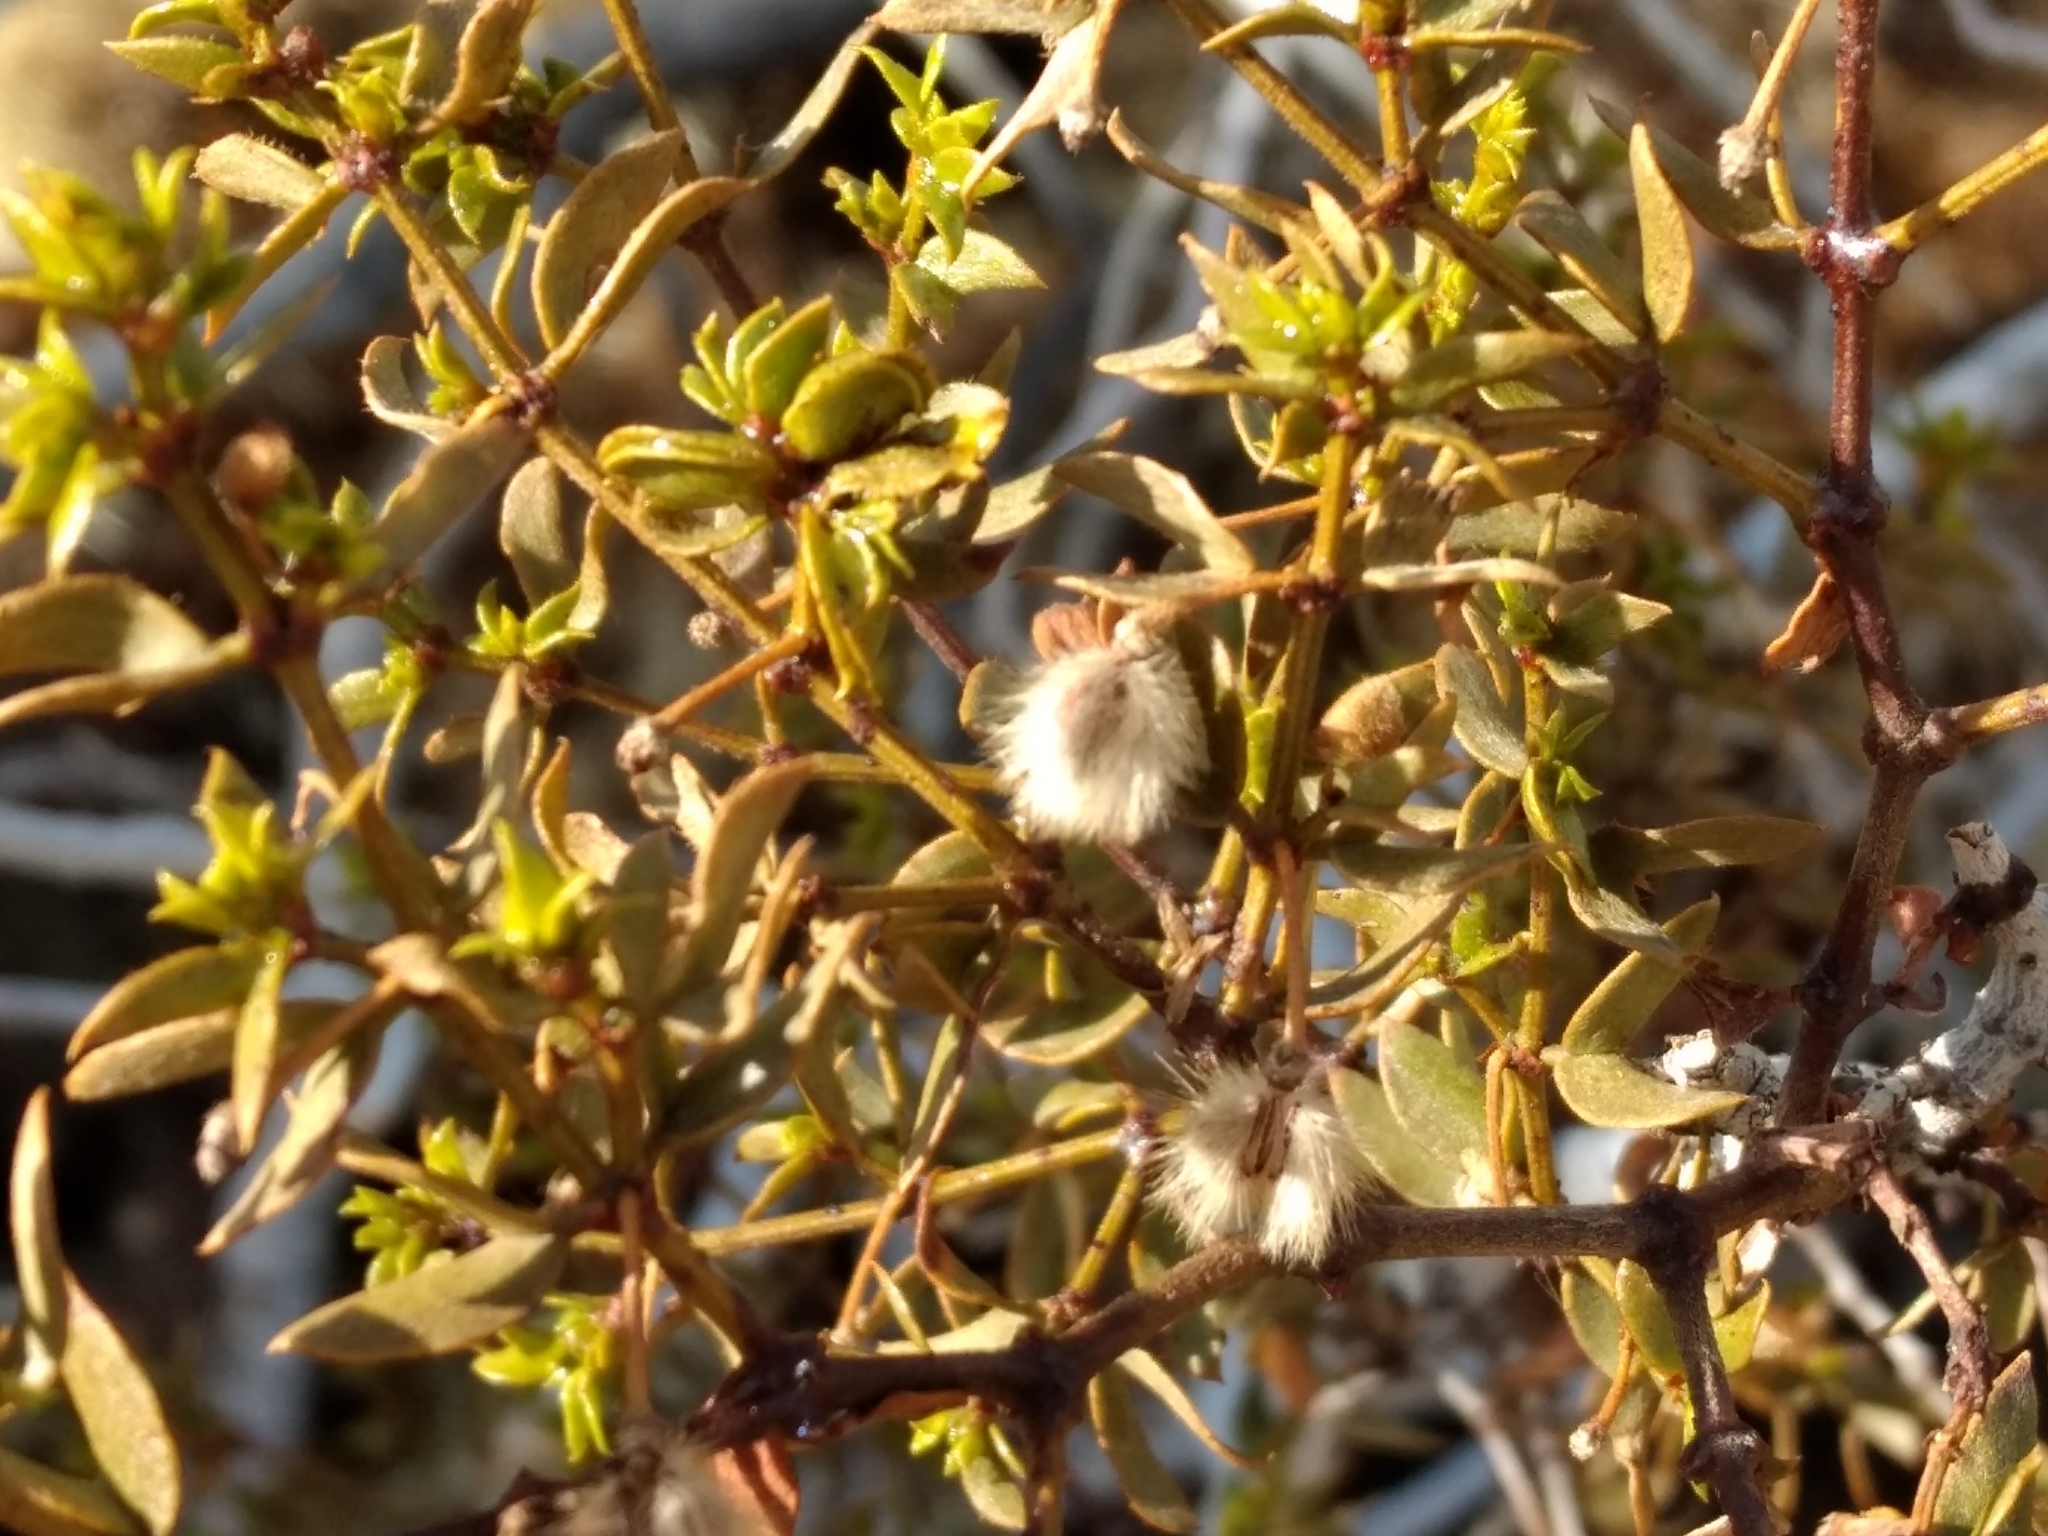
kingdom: Plantae
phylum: Tracheophyta
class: Magnoliopsida
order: Zygophyllales
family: Zygophyllaceae
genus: Larrea
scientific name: Larrea tridentata
